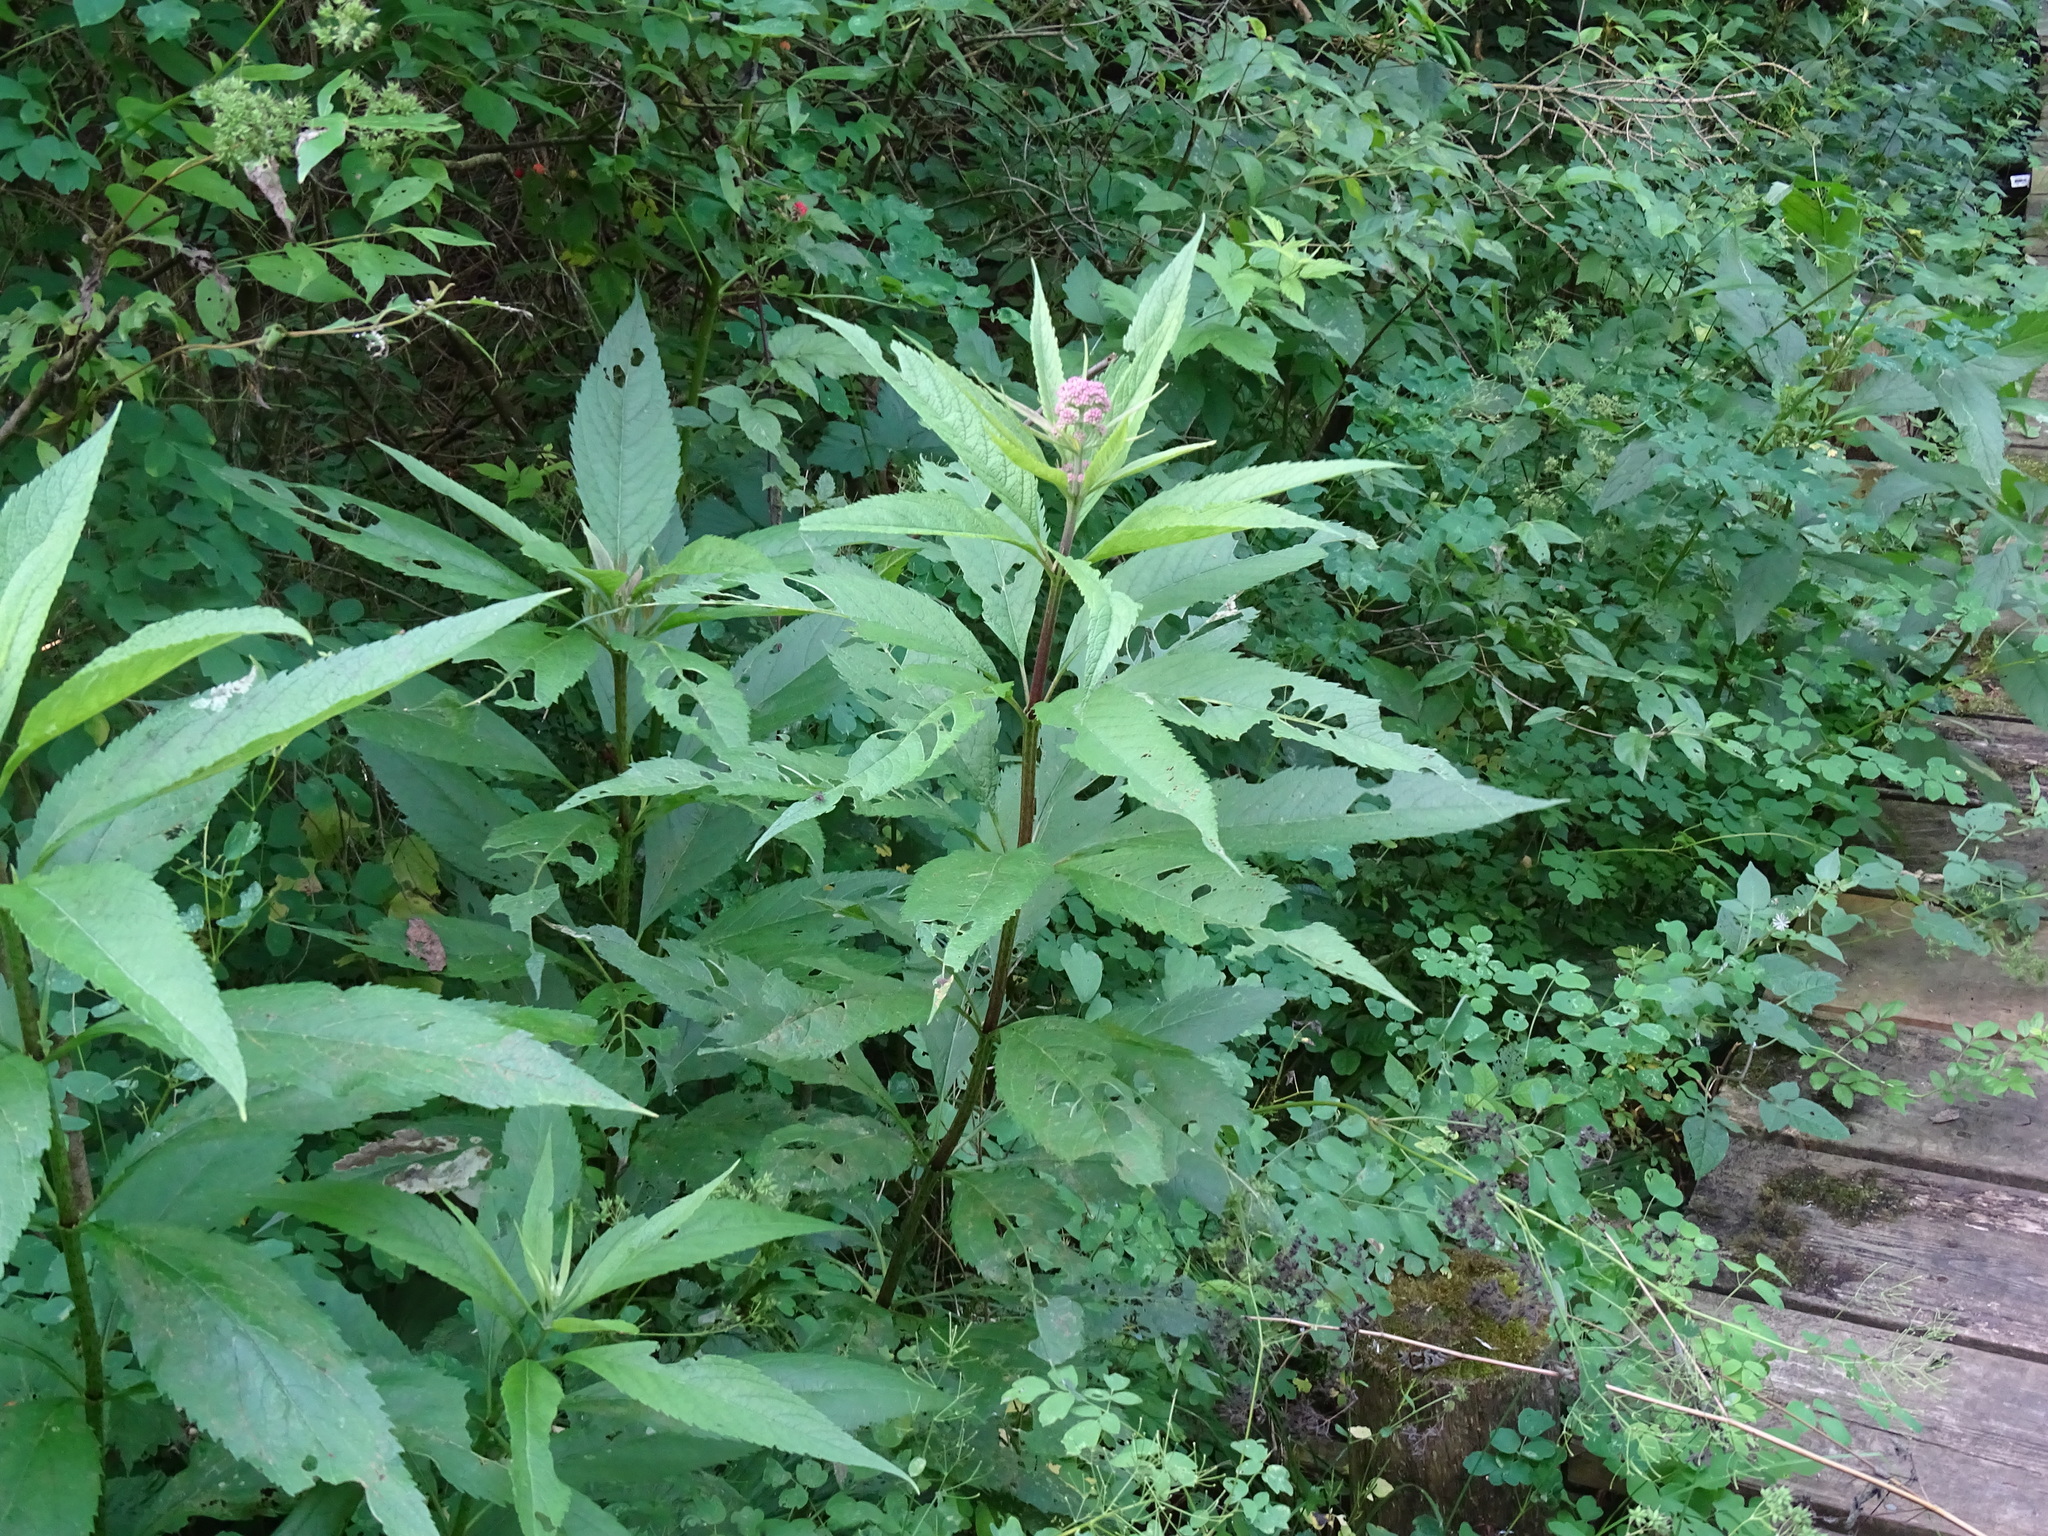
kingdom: Plantae
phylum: Tracheophyta
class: Magnoliopsida
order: Asterales
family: Asteraceae
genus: Eutrochium
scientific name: Eutrochium maculatum
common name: Spotted joe pye weed
